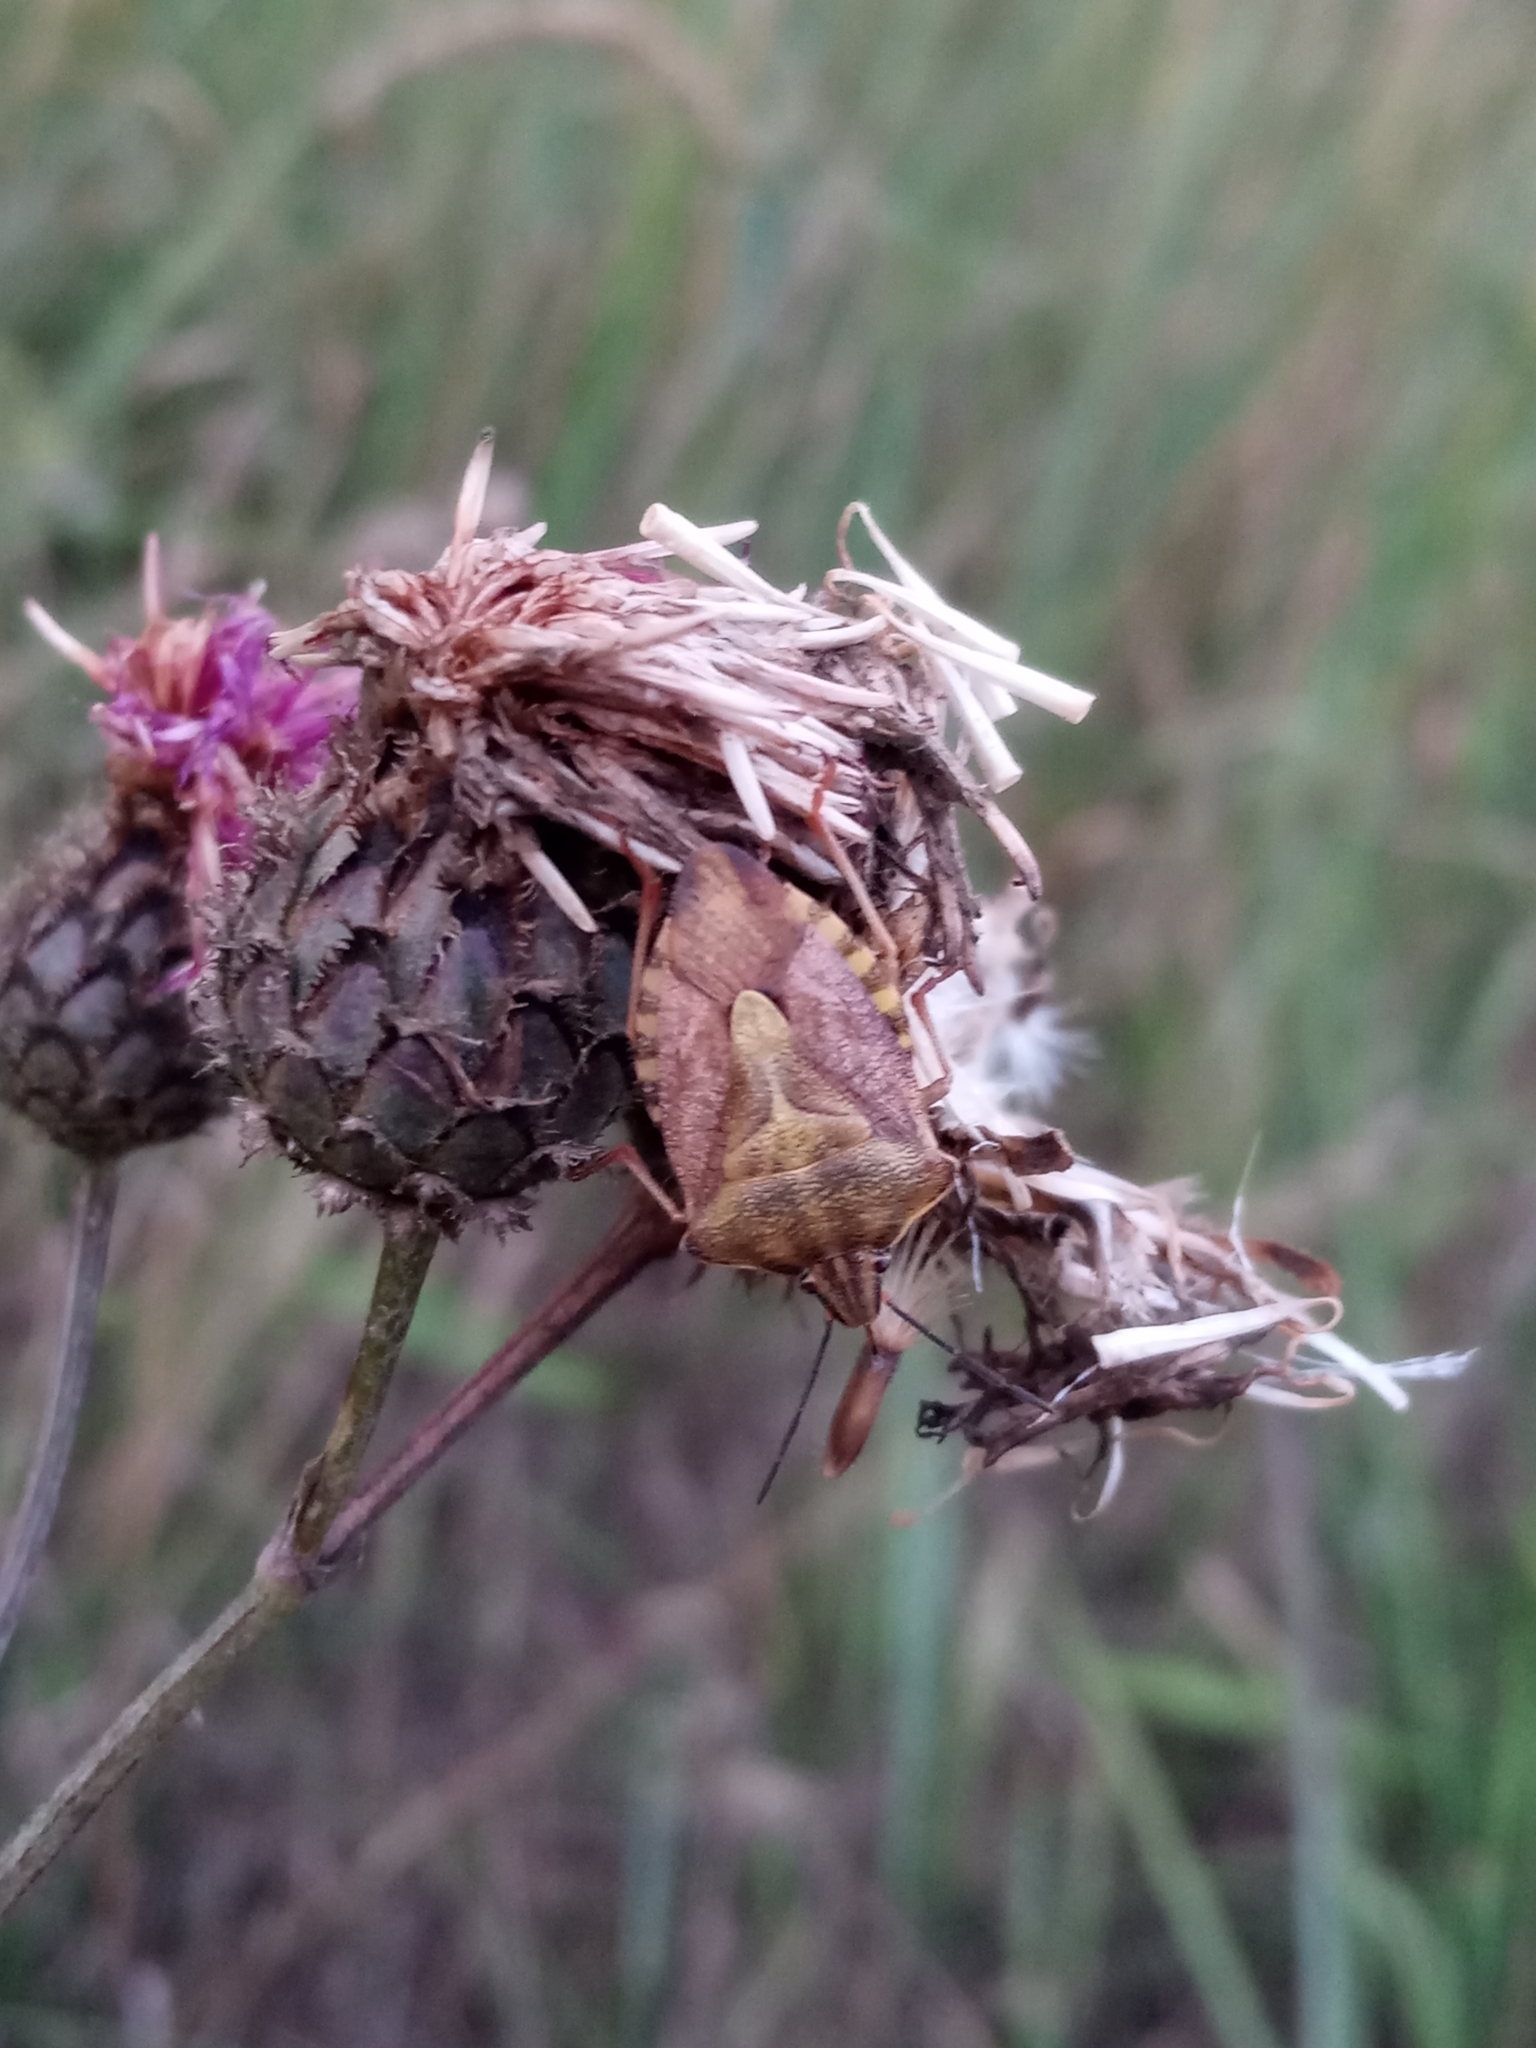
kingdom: Animalia
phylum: Arthropoda
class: Insecta
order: Hemiptera
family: Pentatomidae
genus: Carpocoris
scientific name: Carpocoris purpureipennis
